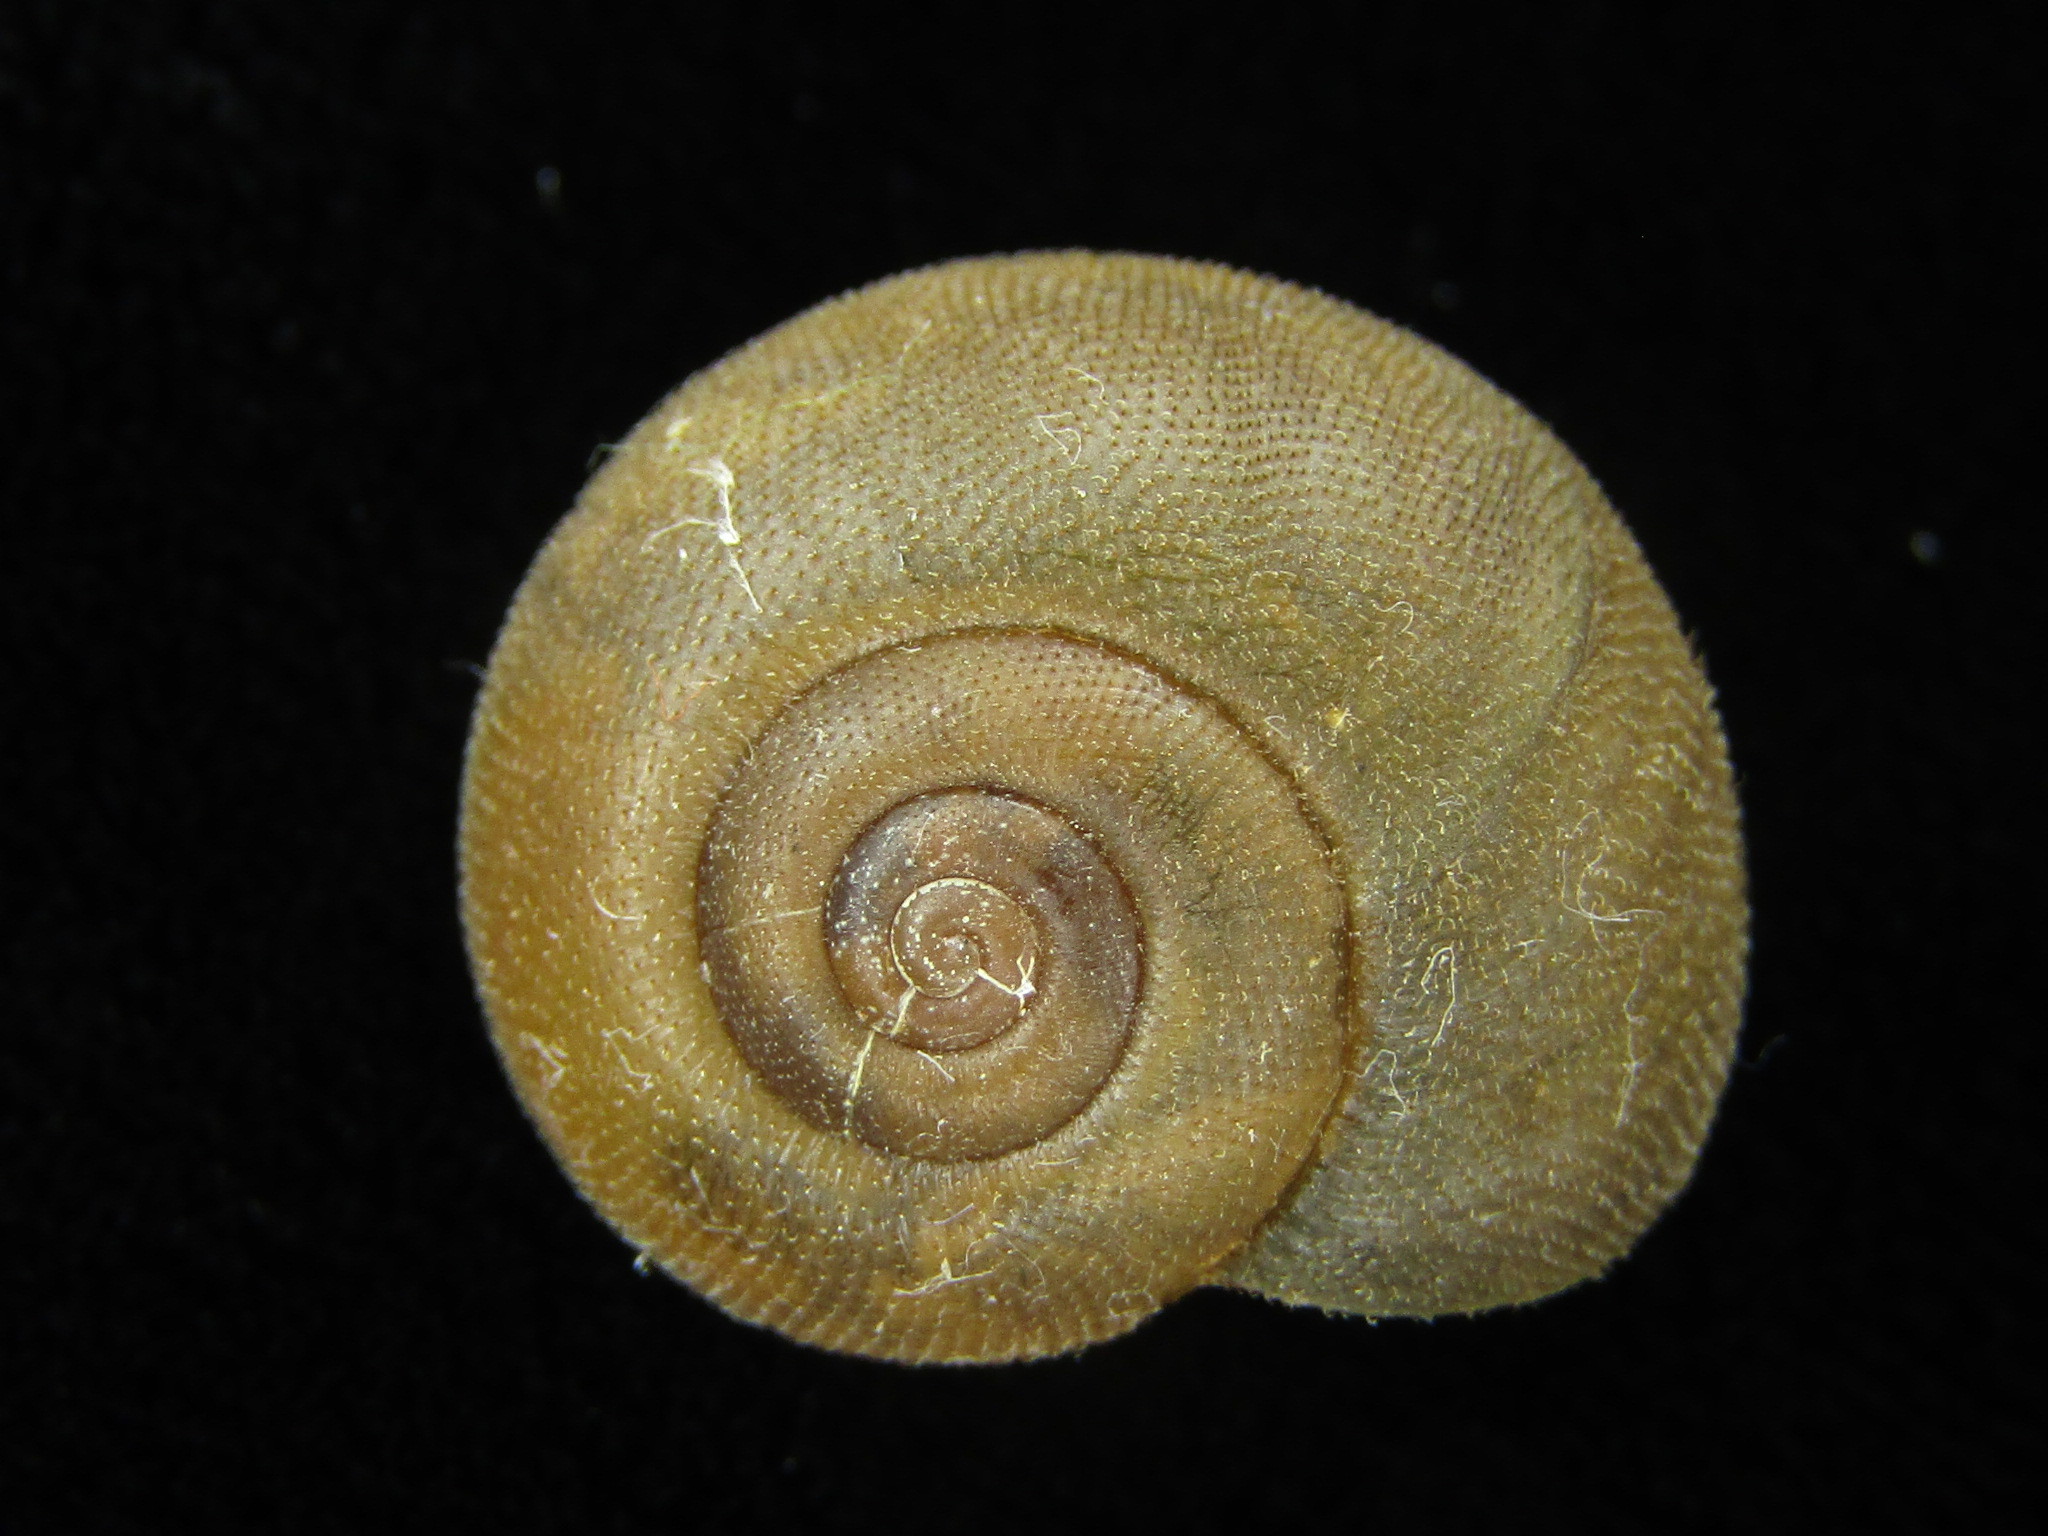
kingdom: Animalia
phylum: Mollusca
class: Gastropoda
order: Stylommatophora
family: Camaenidae
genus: Nipponochloritis
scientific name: Nipponochloritis
